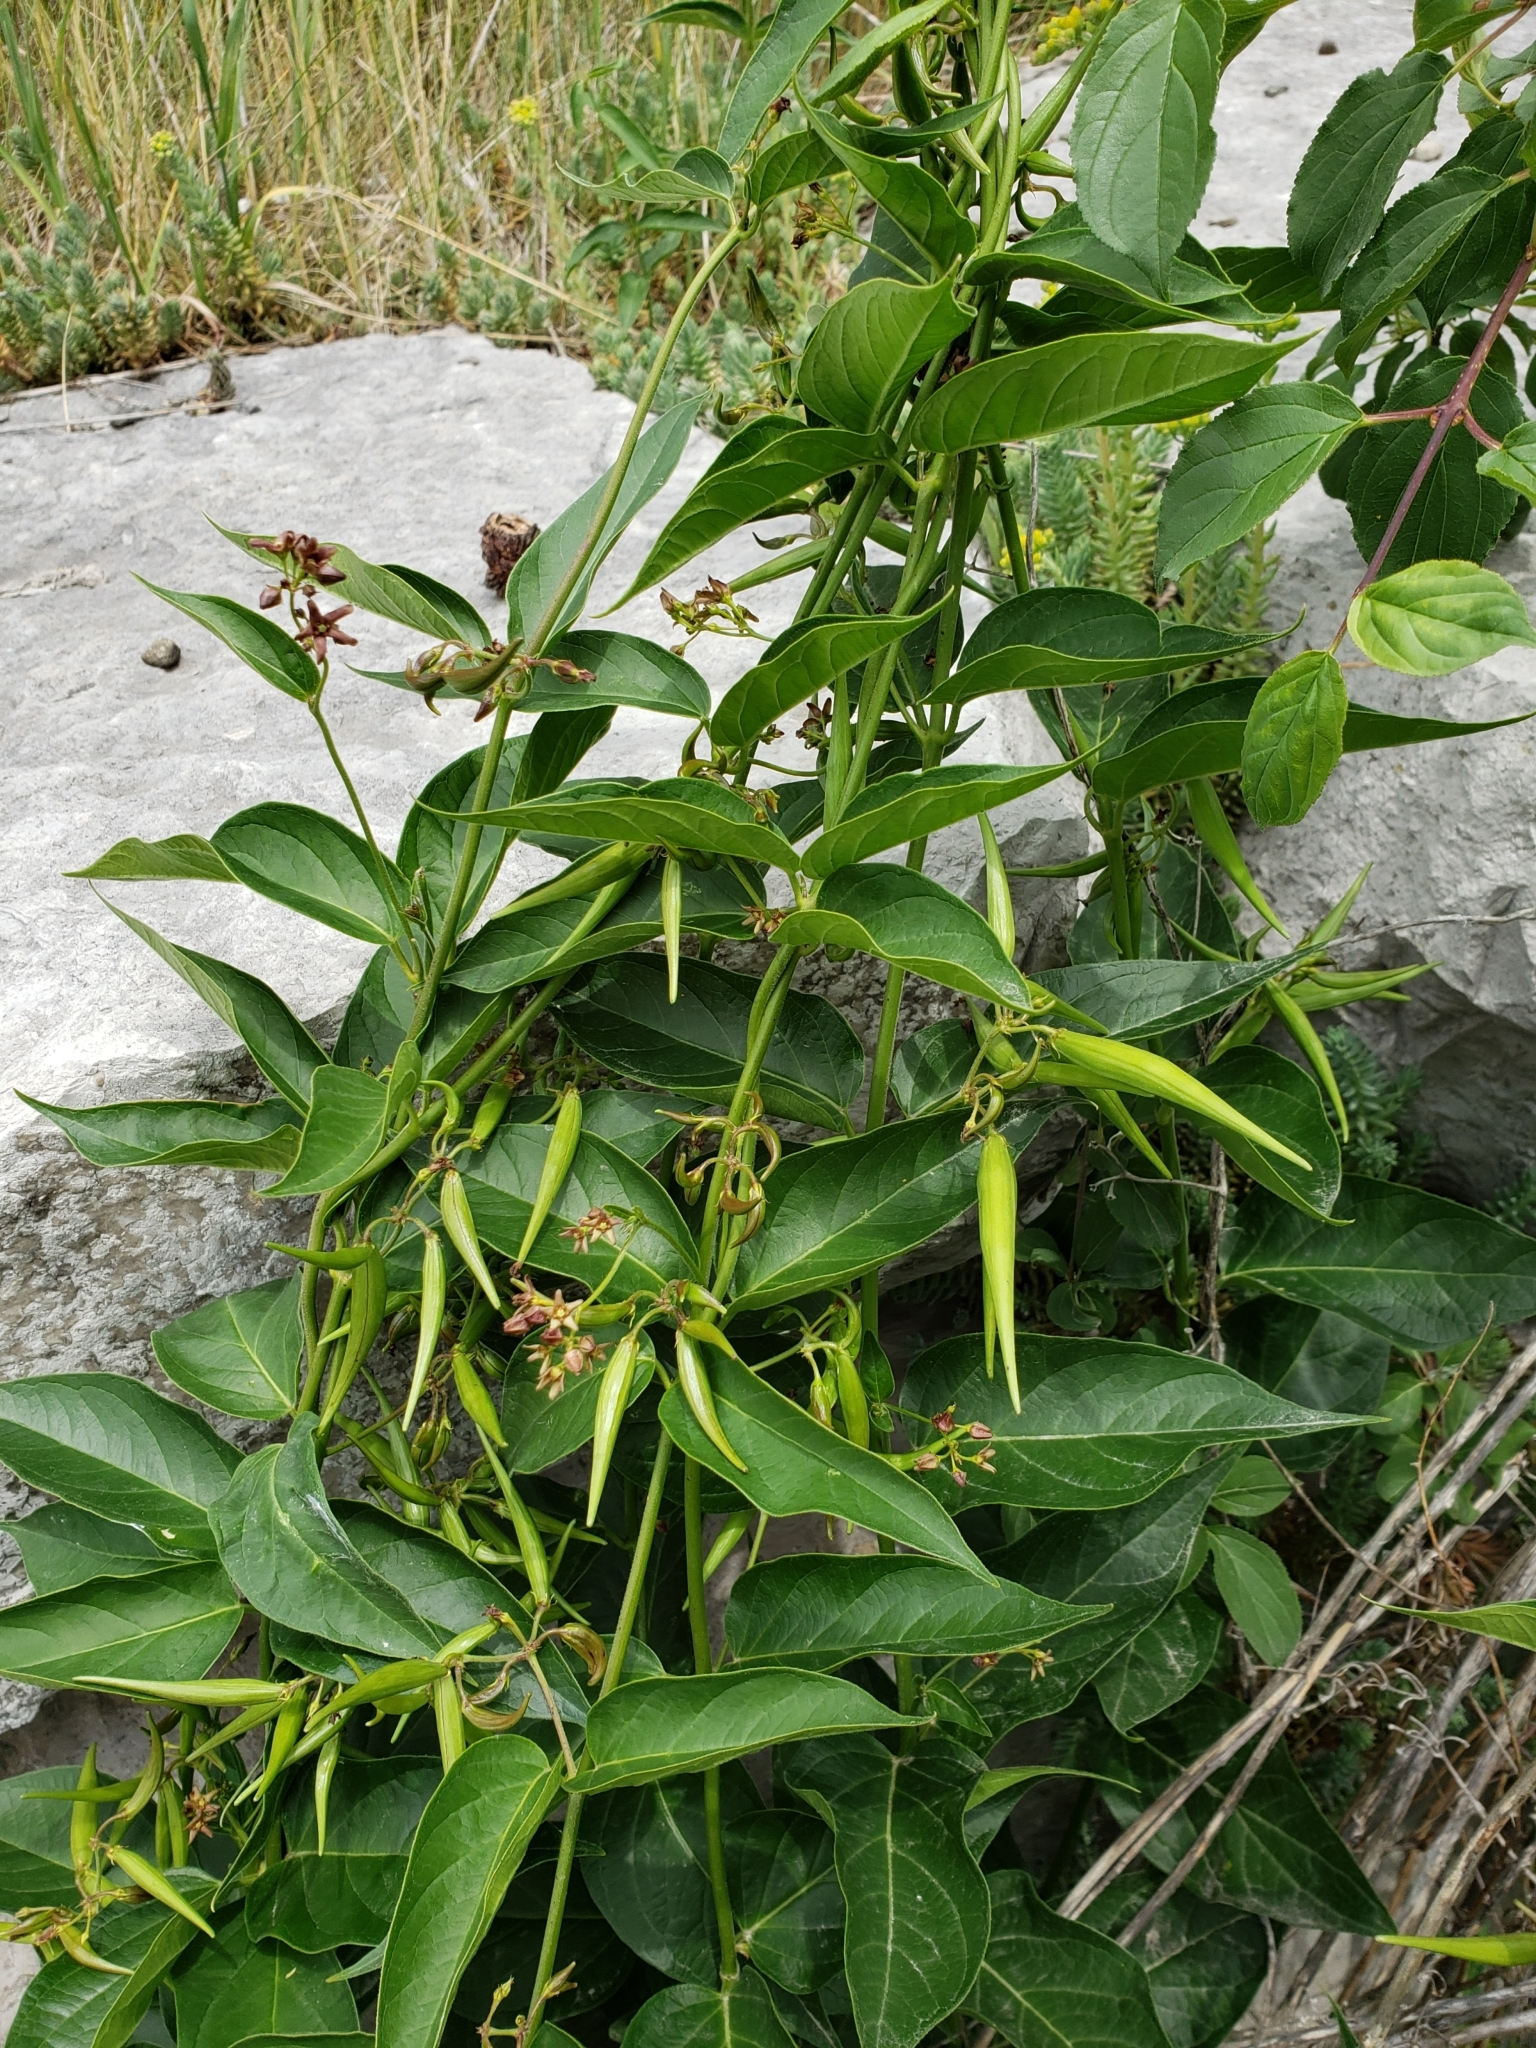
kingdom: Plantae
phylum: Tracheophyta
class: Magnoliopsida
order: Gentianales
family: Apocynaceae
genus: Vincetoxicum
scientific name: Vincetoxicum rossicum
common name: Dog-strangling vine
